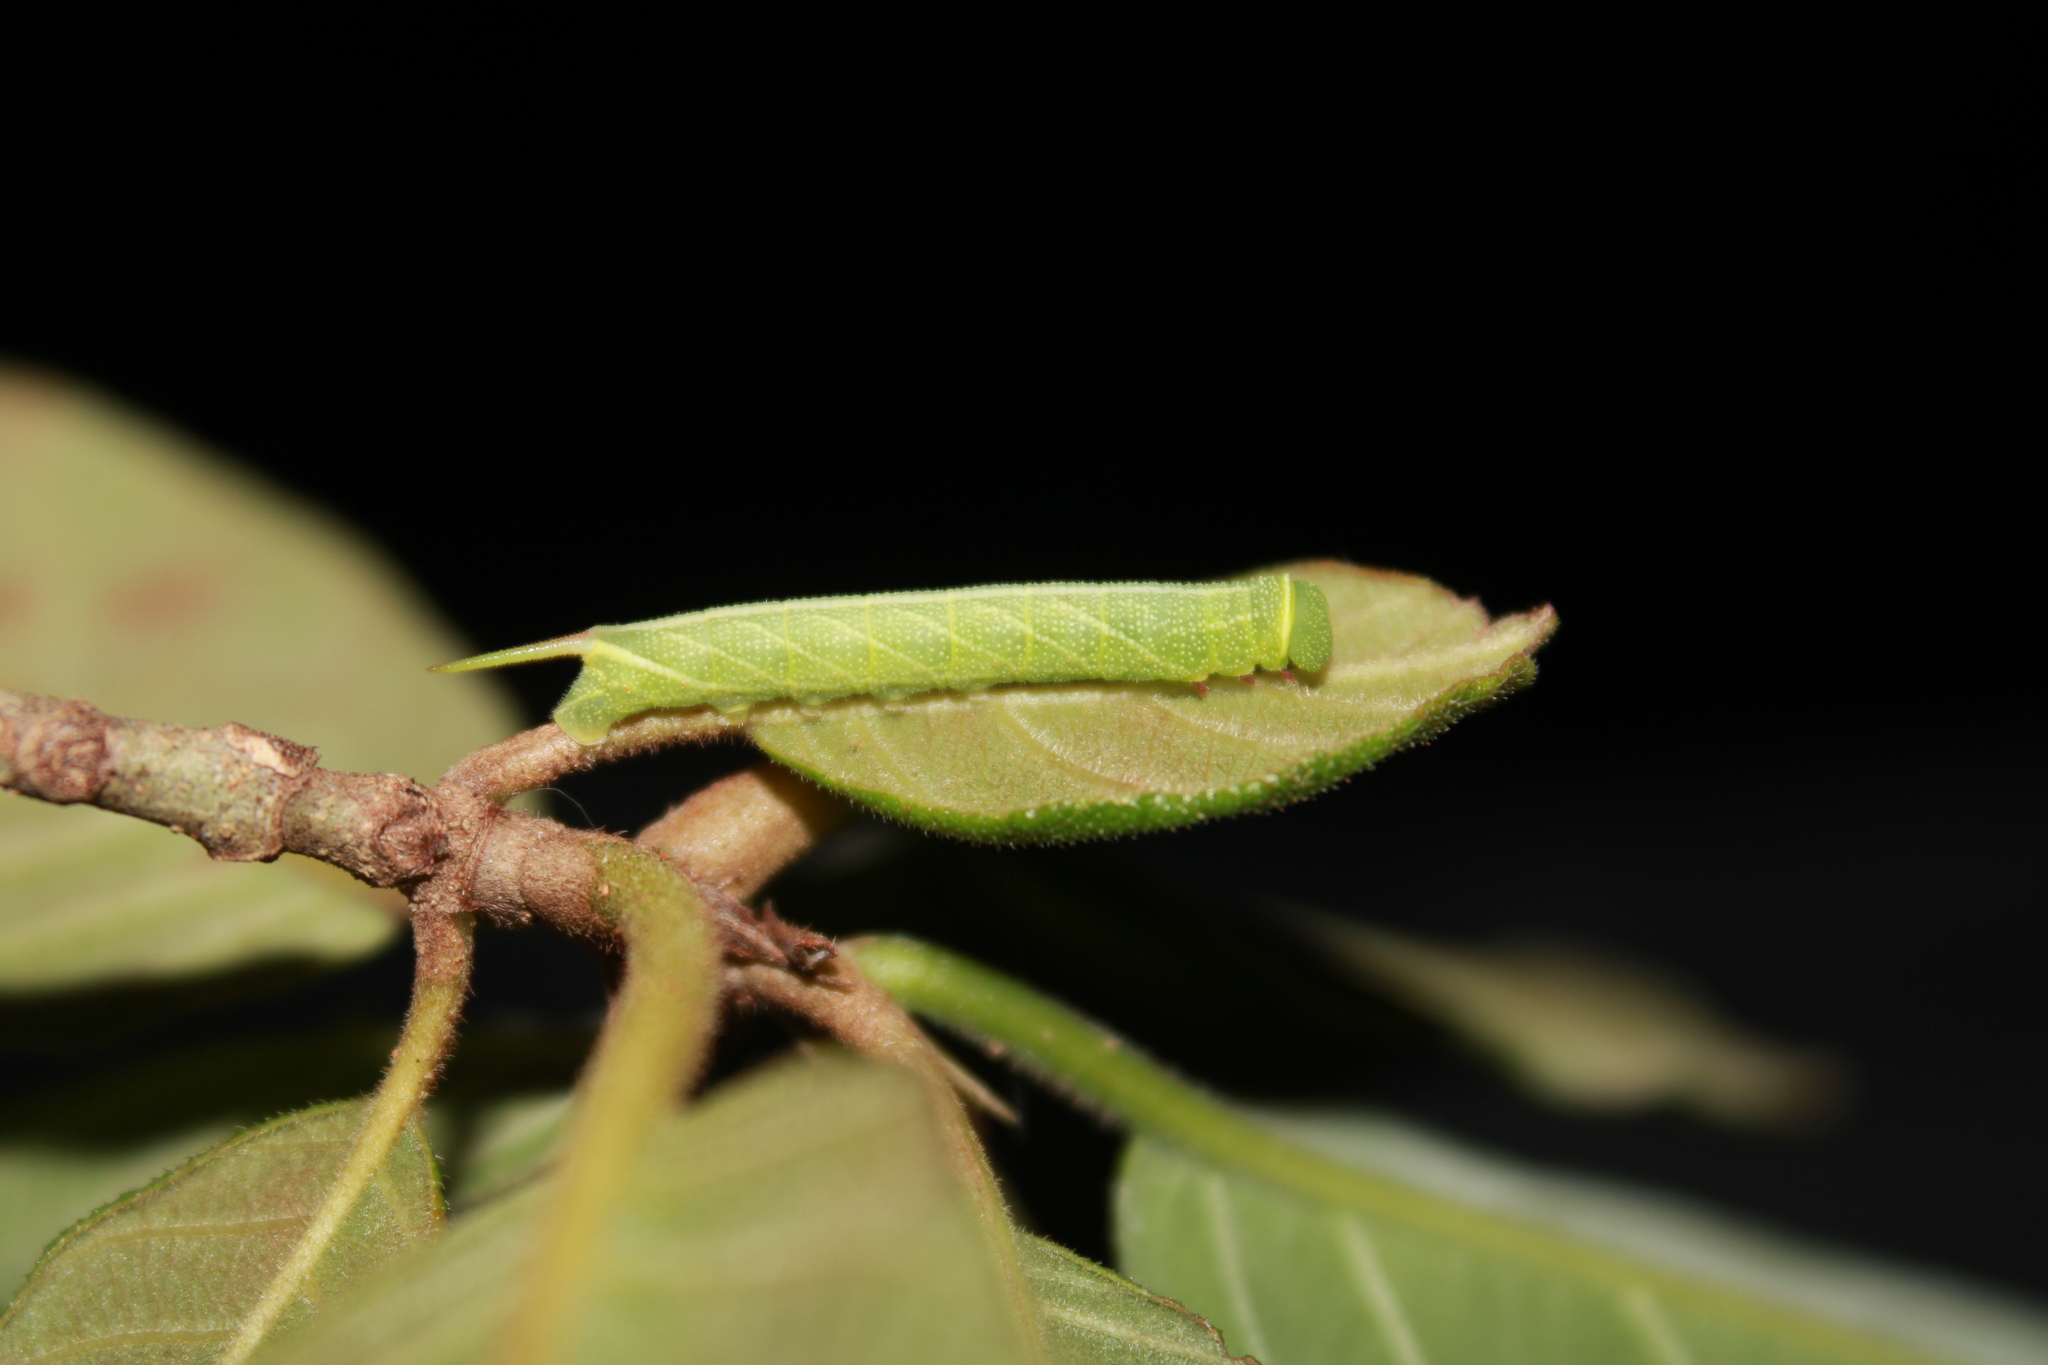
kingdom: Animalia
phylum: Arthropoda
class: Insecta
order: Lepidoptera
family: Sphingidae
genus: Perigonia
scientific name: Perigonia lusca
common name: Half-blind sphinx
